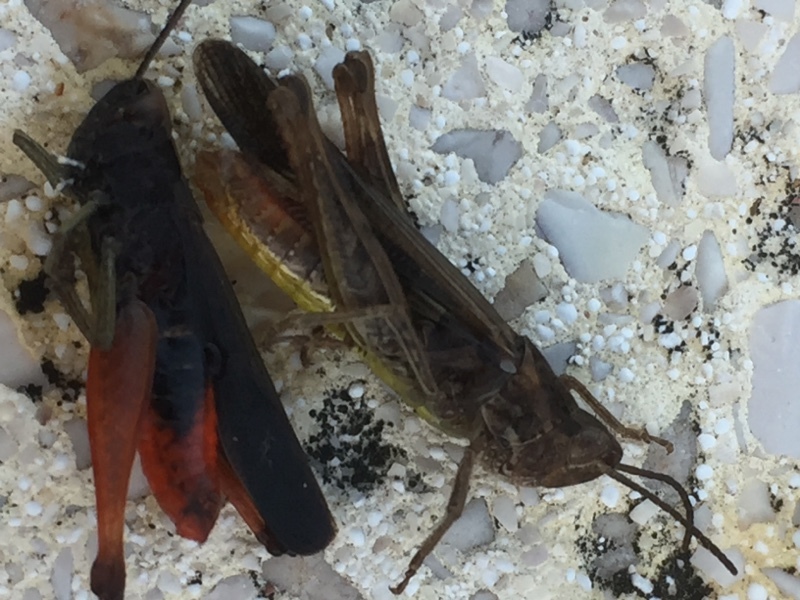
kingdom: Animalia
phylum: Arthropoda
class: Insecta
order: Orthoptera
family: Acrididae
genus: Omocestus
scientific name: Omocestus rufipes
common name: Woodland grasshopper
